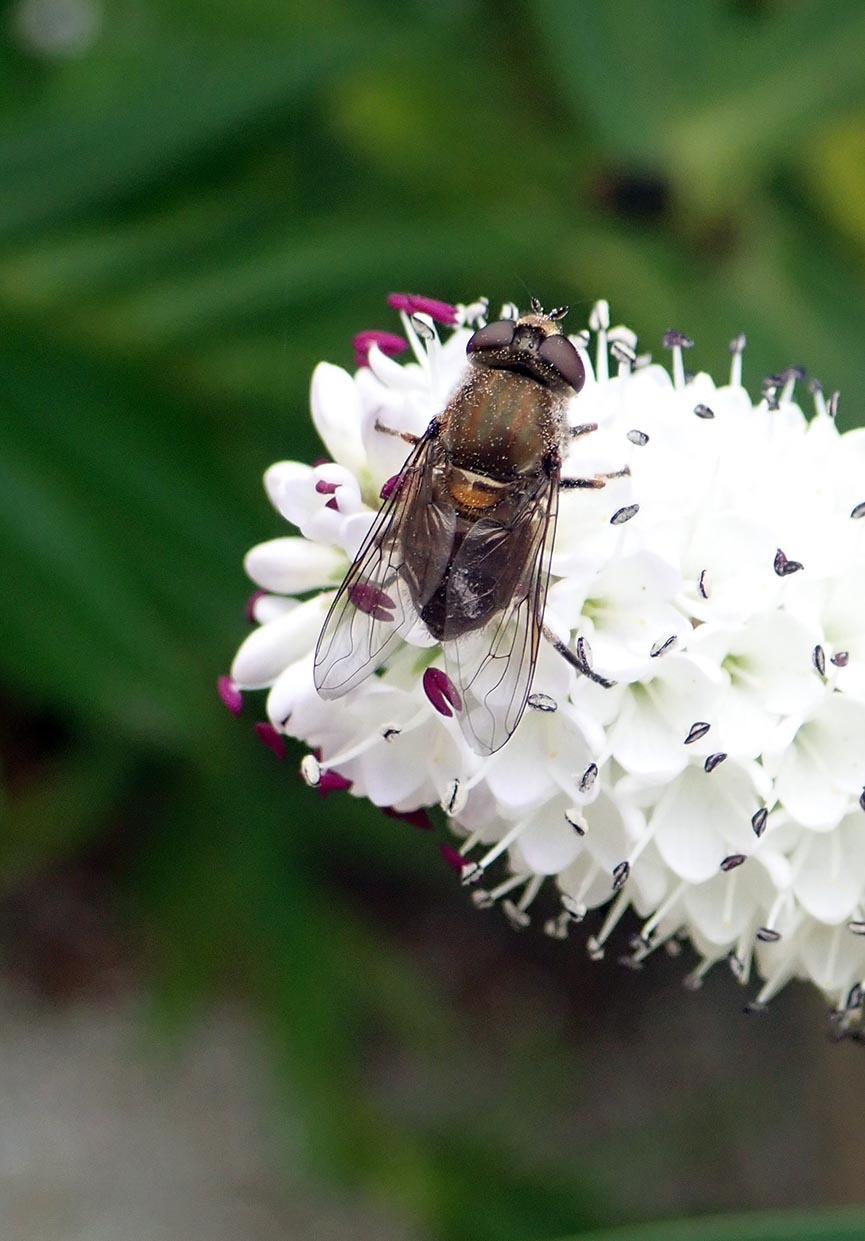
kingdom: Animalia
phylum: Arthropoda
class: Insecta
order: Diptera
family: Syrphidae
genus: Helophilus
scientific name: Helophilus chathamensis
